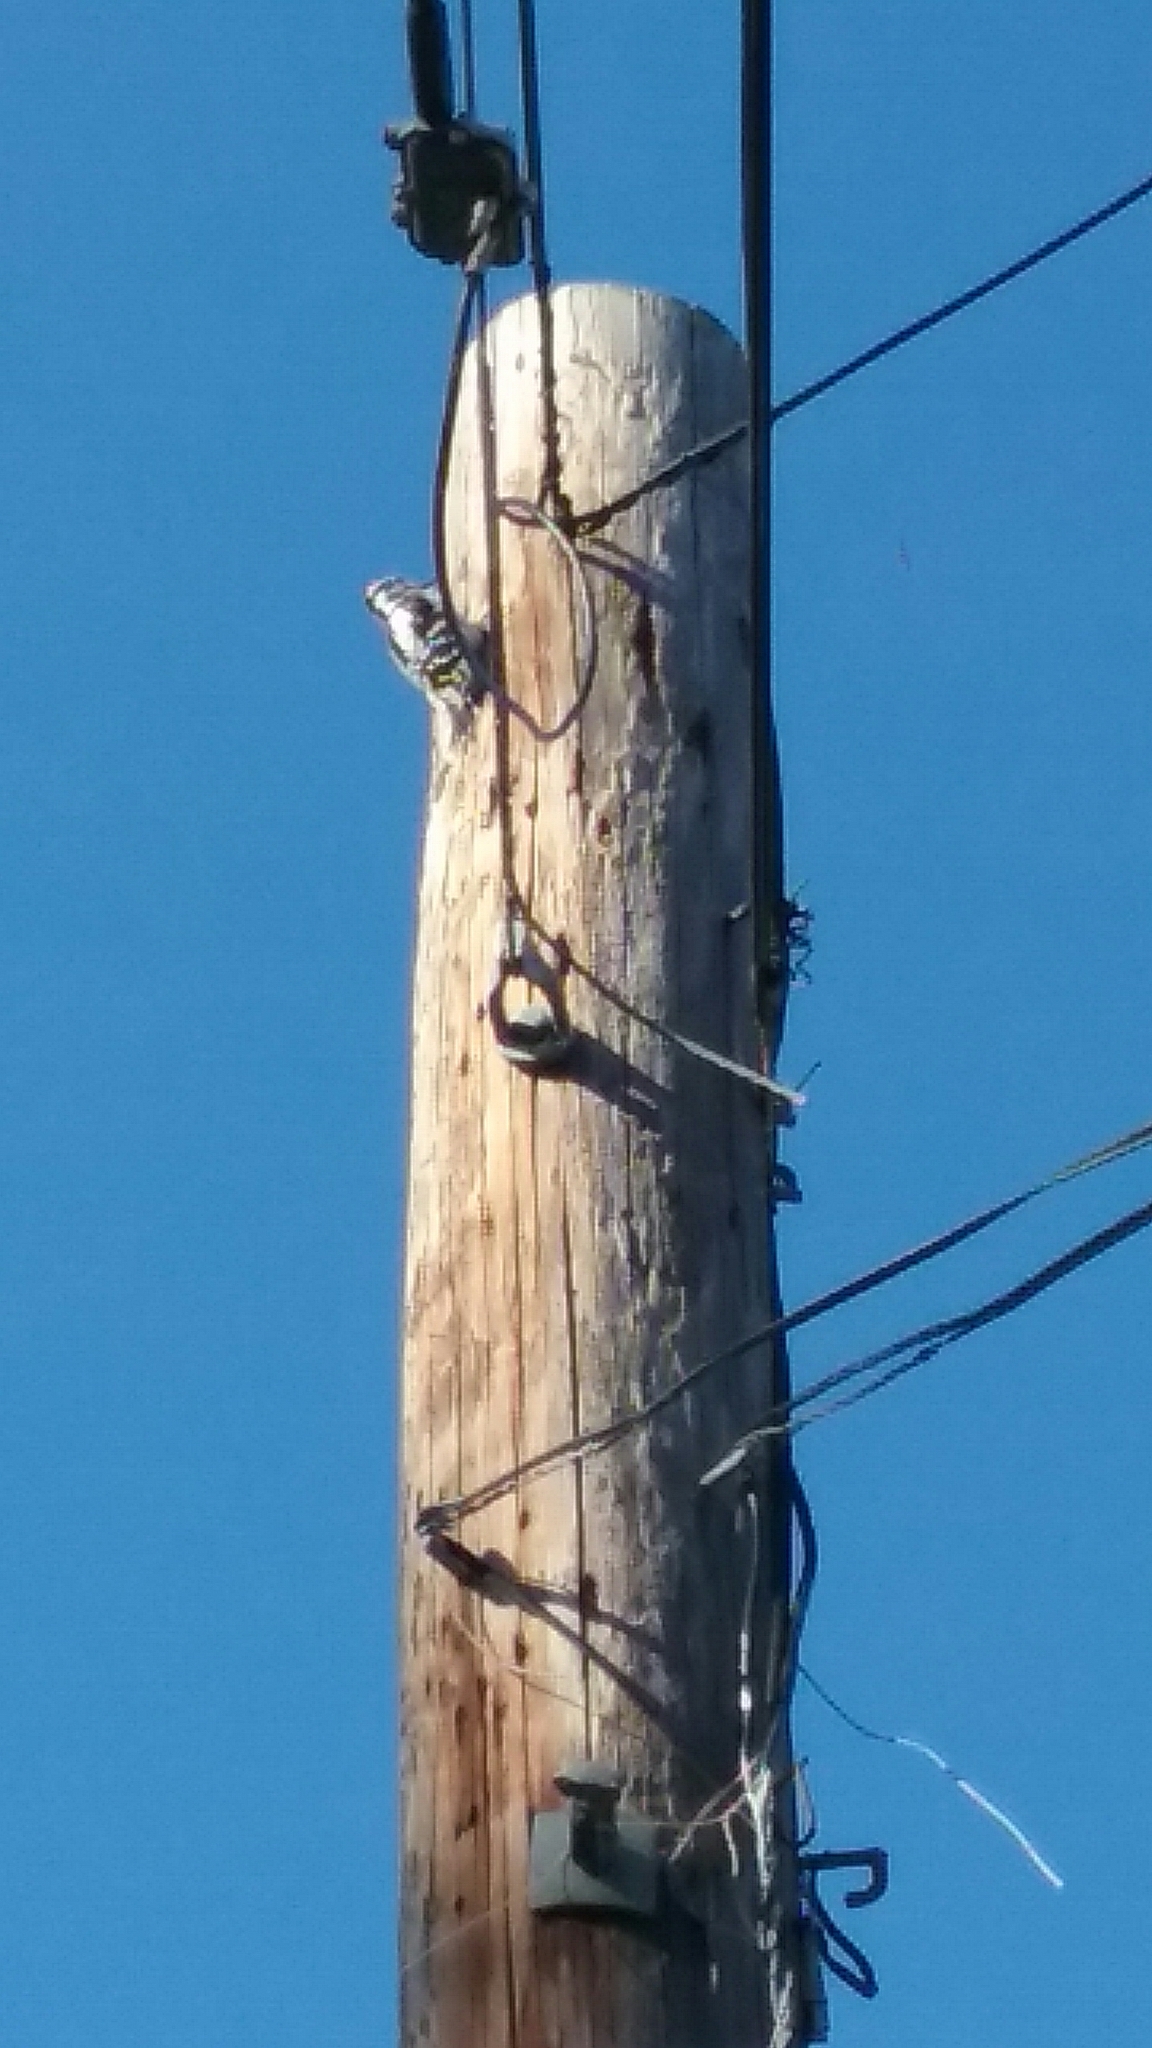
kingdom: Animalia
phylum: Chordata
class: Aves
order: Piciformes
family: Picidae
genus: Leuconotopicus
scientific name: Leuconotopicus villosus
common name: Hairy woodpecker
